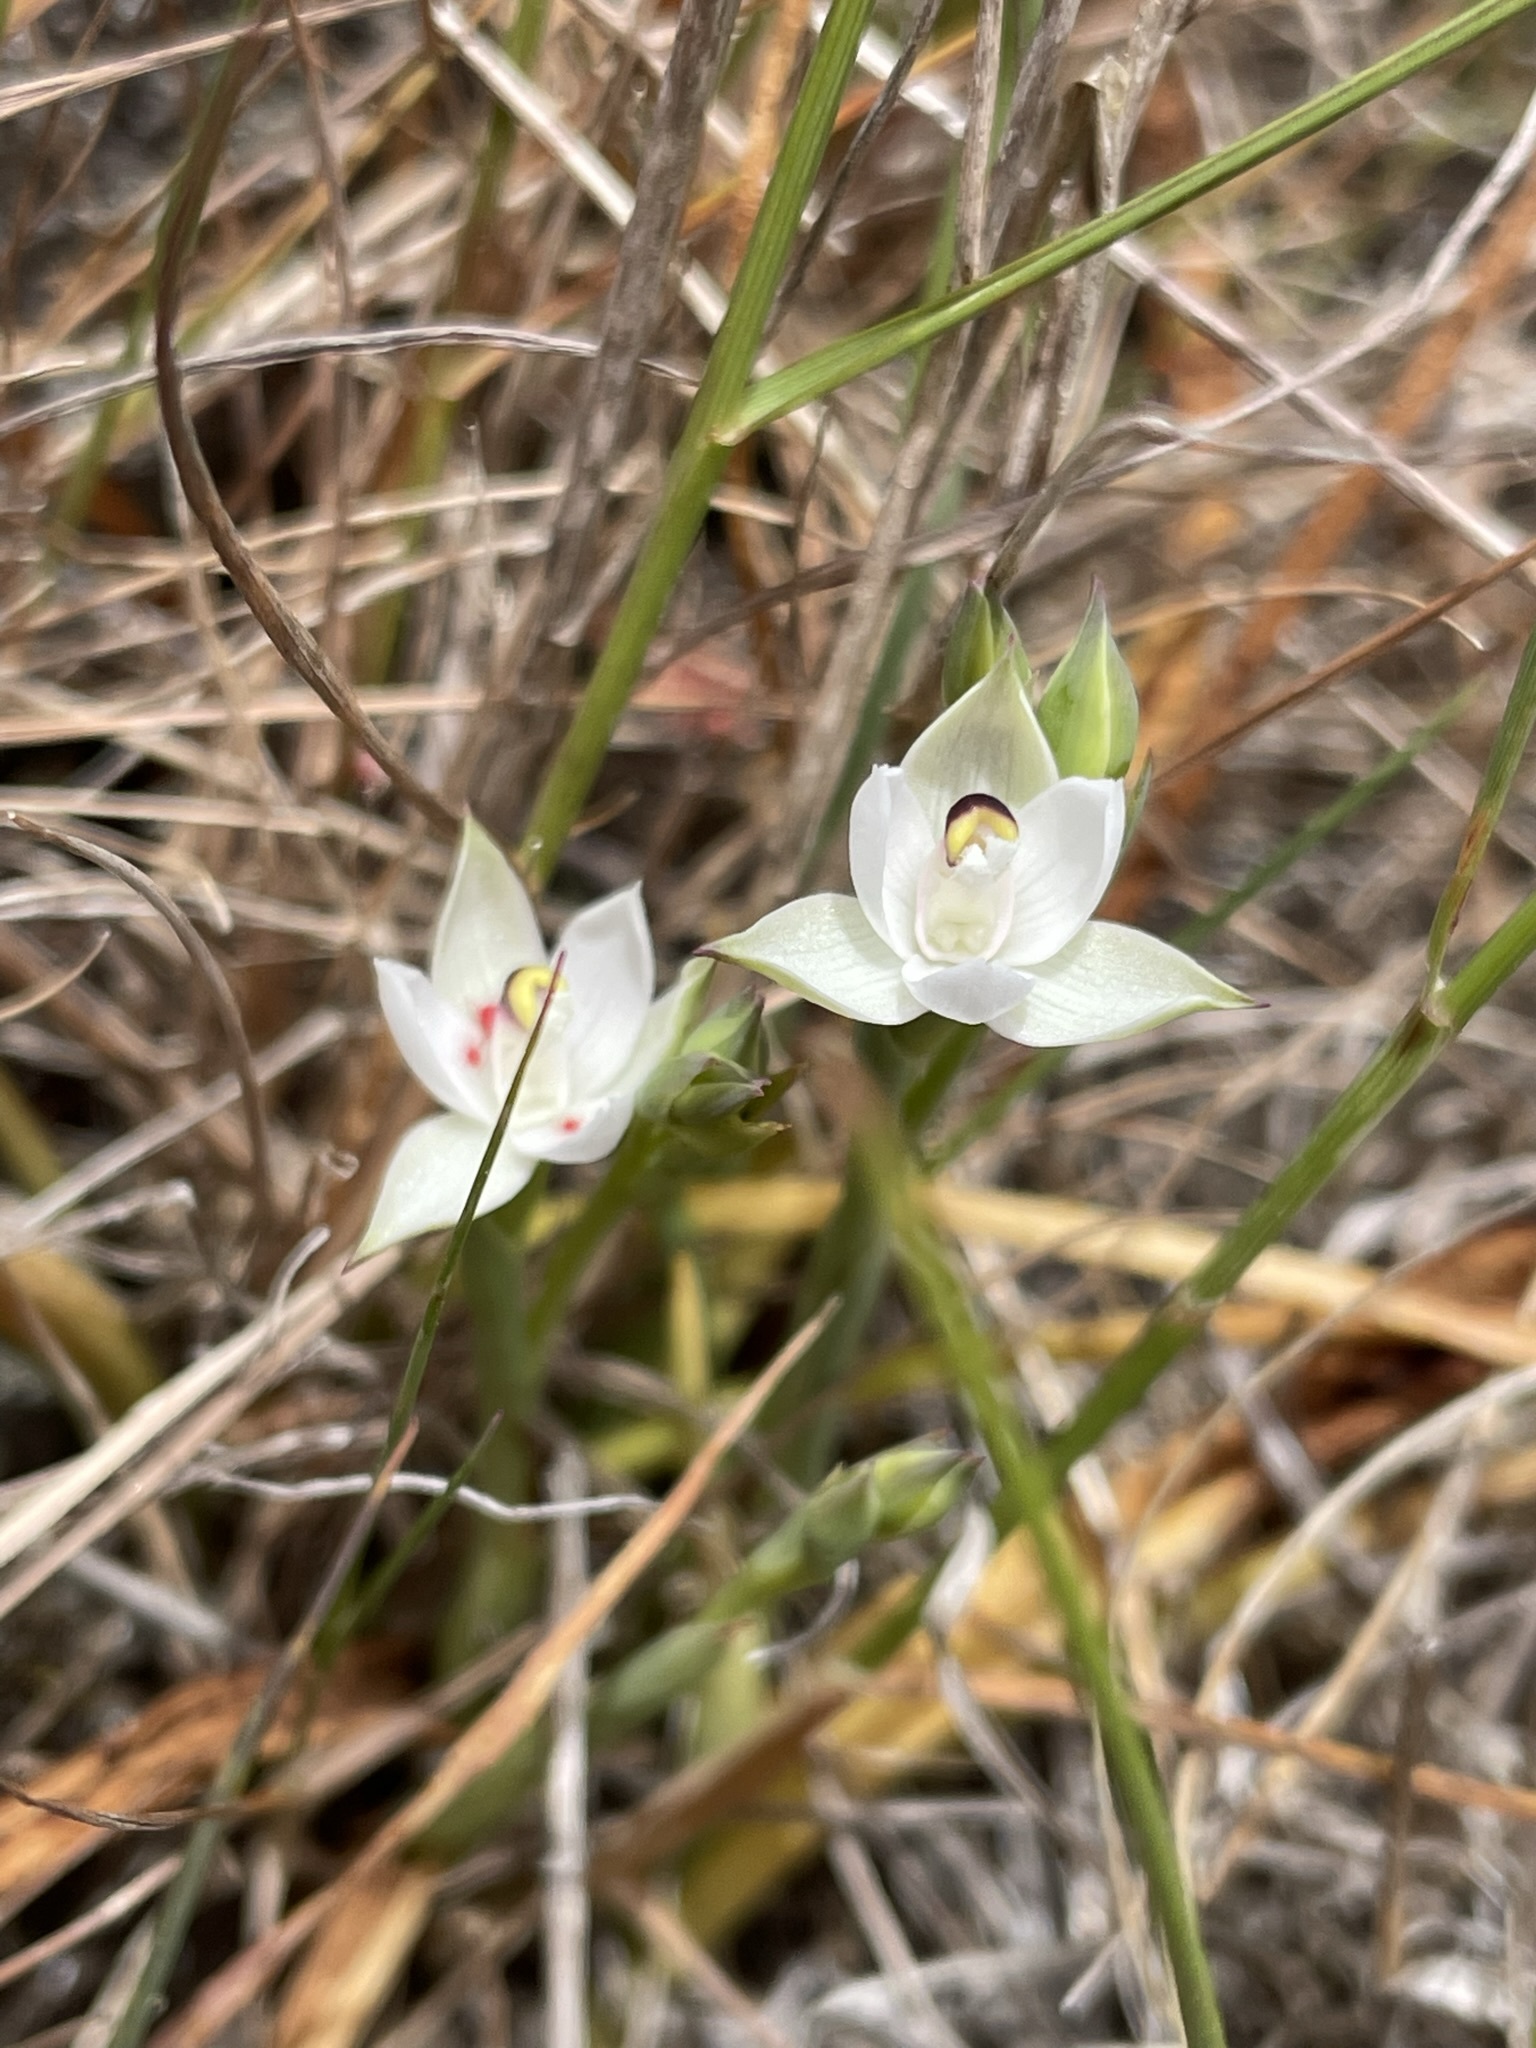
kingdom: Plantae
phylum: Tracheophyta
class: Liliopsida
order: Asparagales
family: Orchidaceae
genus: Thelymitra
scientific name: Thelymitra longifolia
